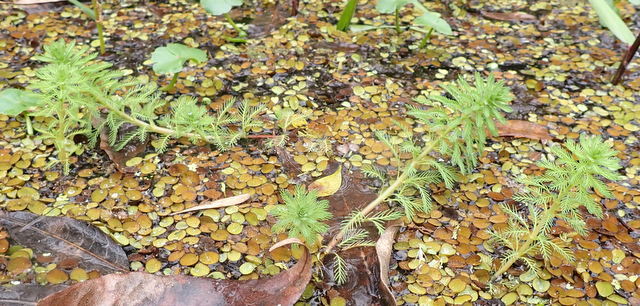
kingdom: Plantae
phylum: Tracheophyta
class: Magnoliopsida
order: Saxifragales
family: Haloragaceae
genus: Myriophyllum
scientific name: Myriophyllum aquaticum
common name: Parrot's feather
